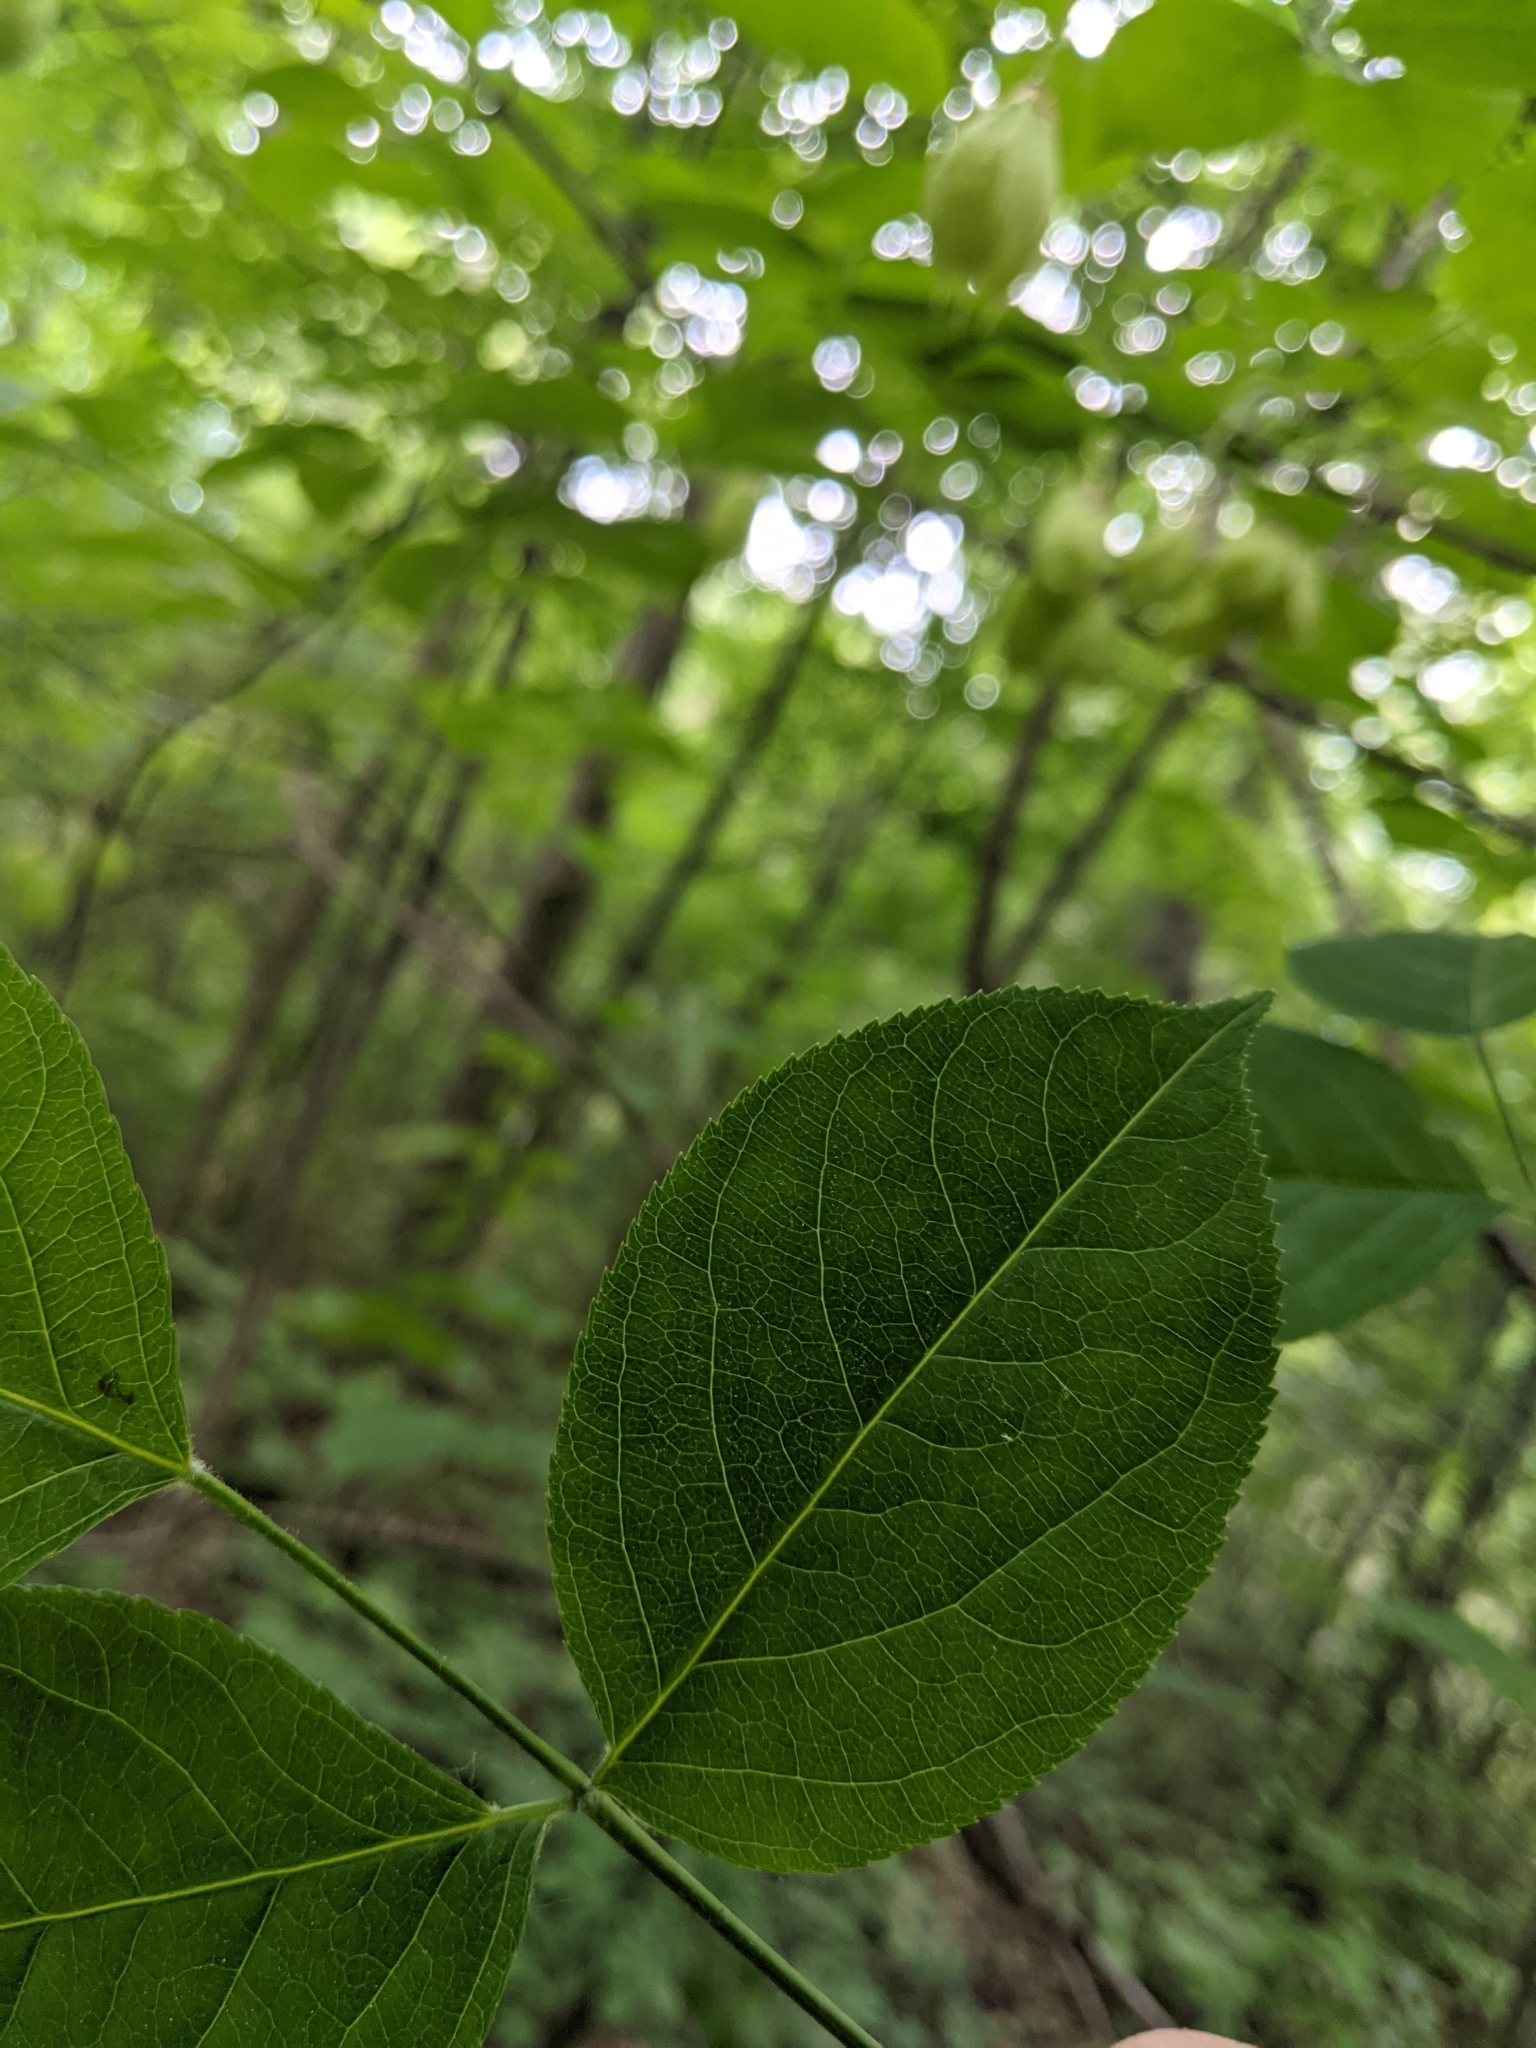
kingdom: Plantae
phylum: Tracheophyta
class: Magnoliopsida
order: Crossosomatales
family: Staphyleaceae
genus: Staphylea
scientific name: Staphylea trifolia
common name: American bladdernut
